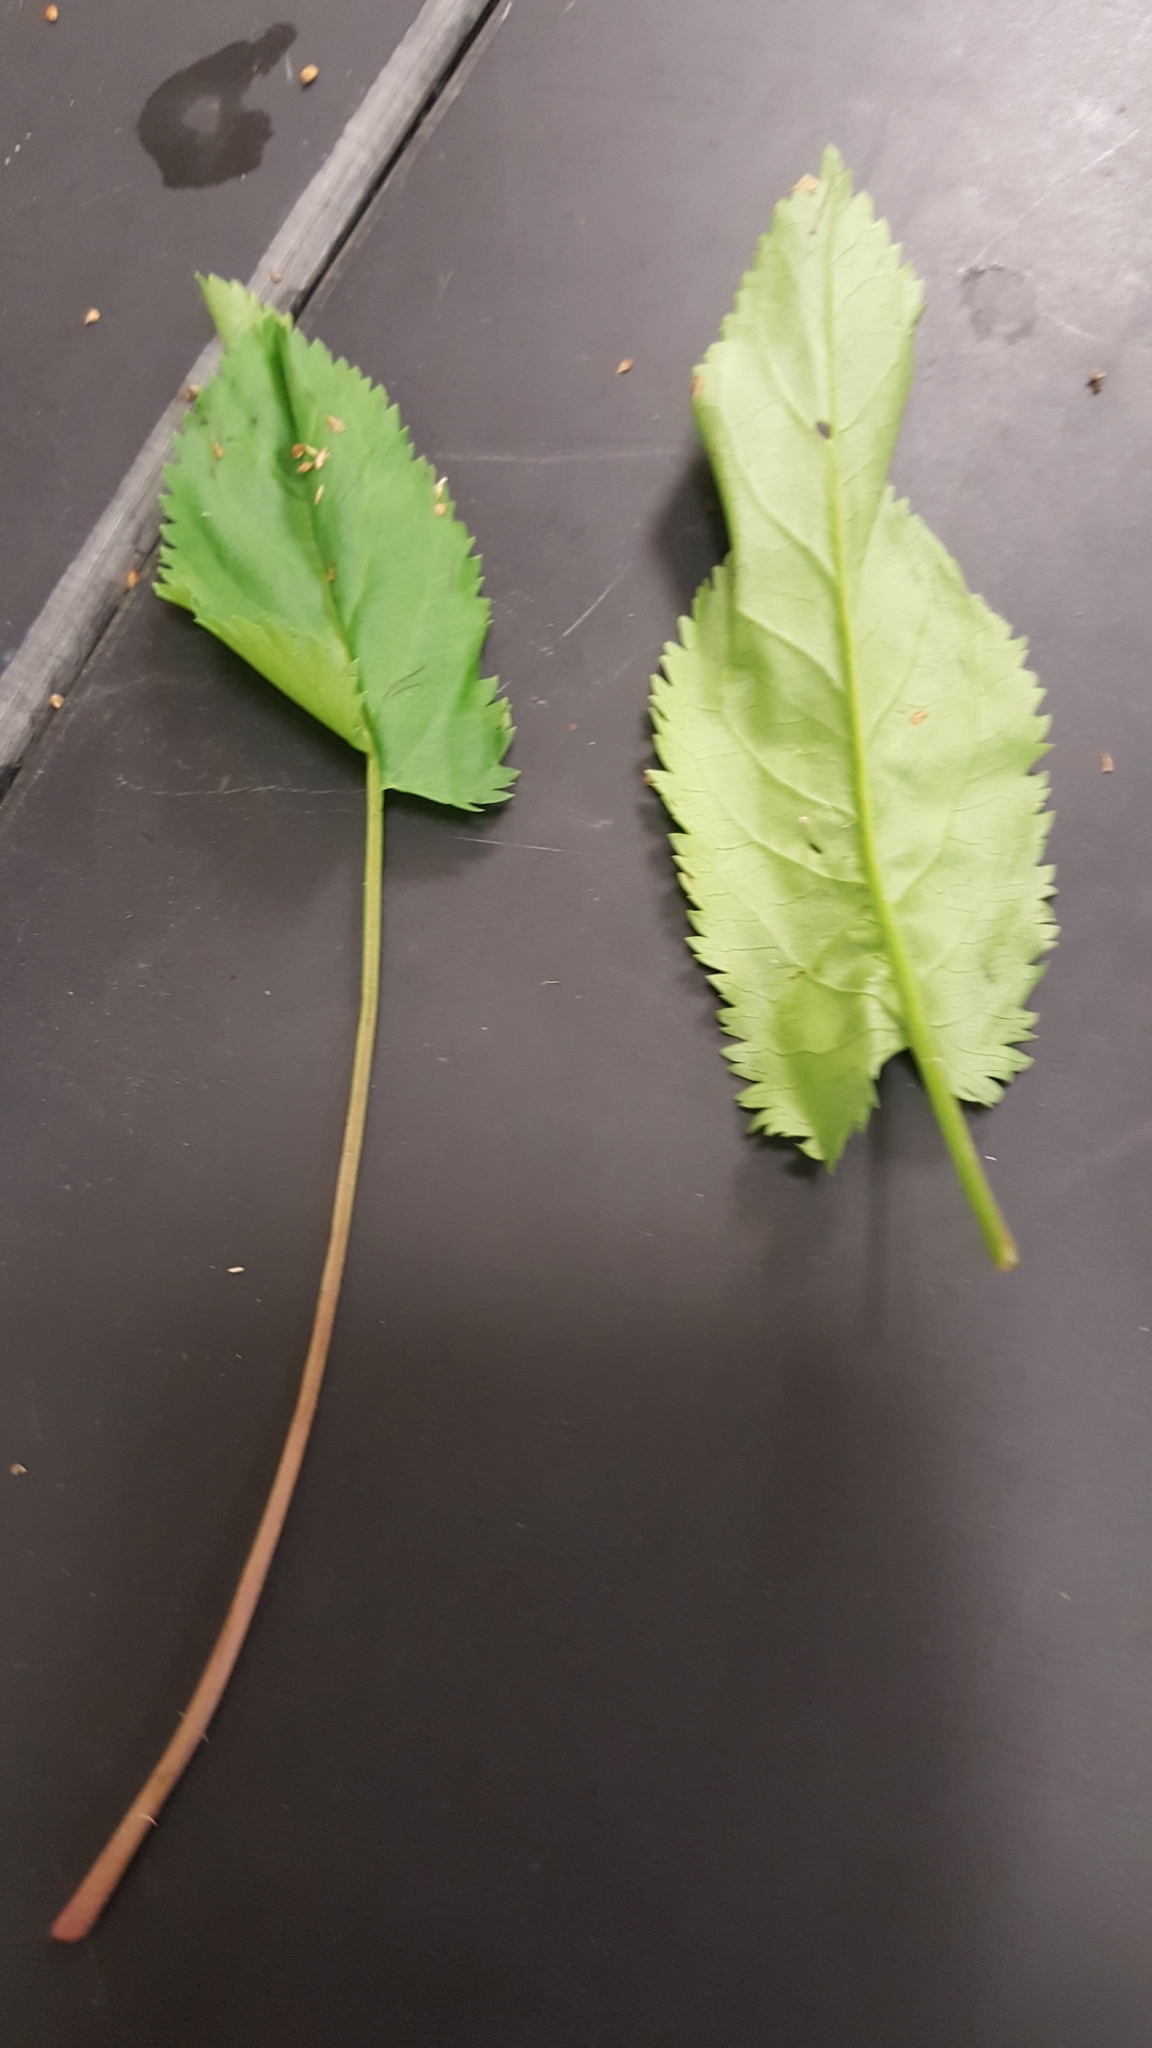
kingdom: Plantae
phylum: Tracheophyta
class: Magnoliopsida
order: Asterales
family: Asteraceae
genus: Packera
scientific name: Packera schweinitziana
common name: Schweinitz's ragwort
